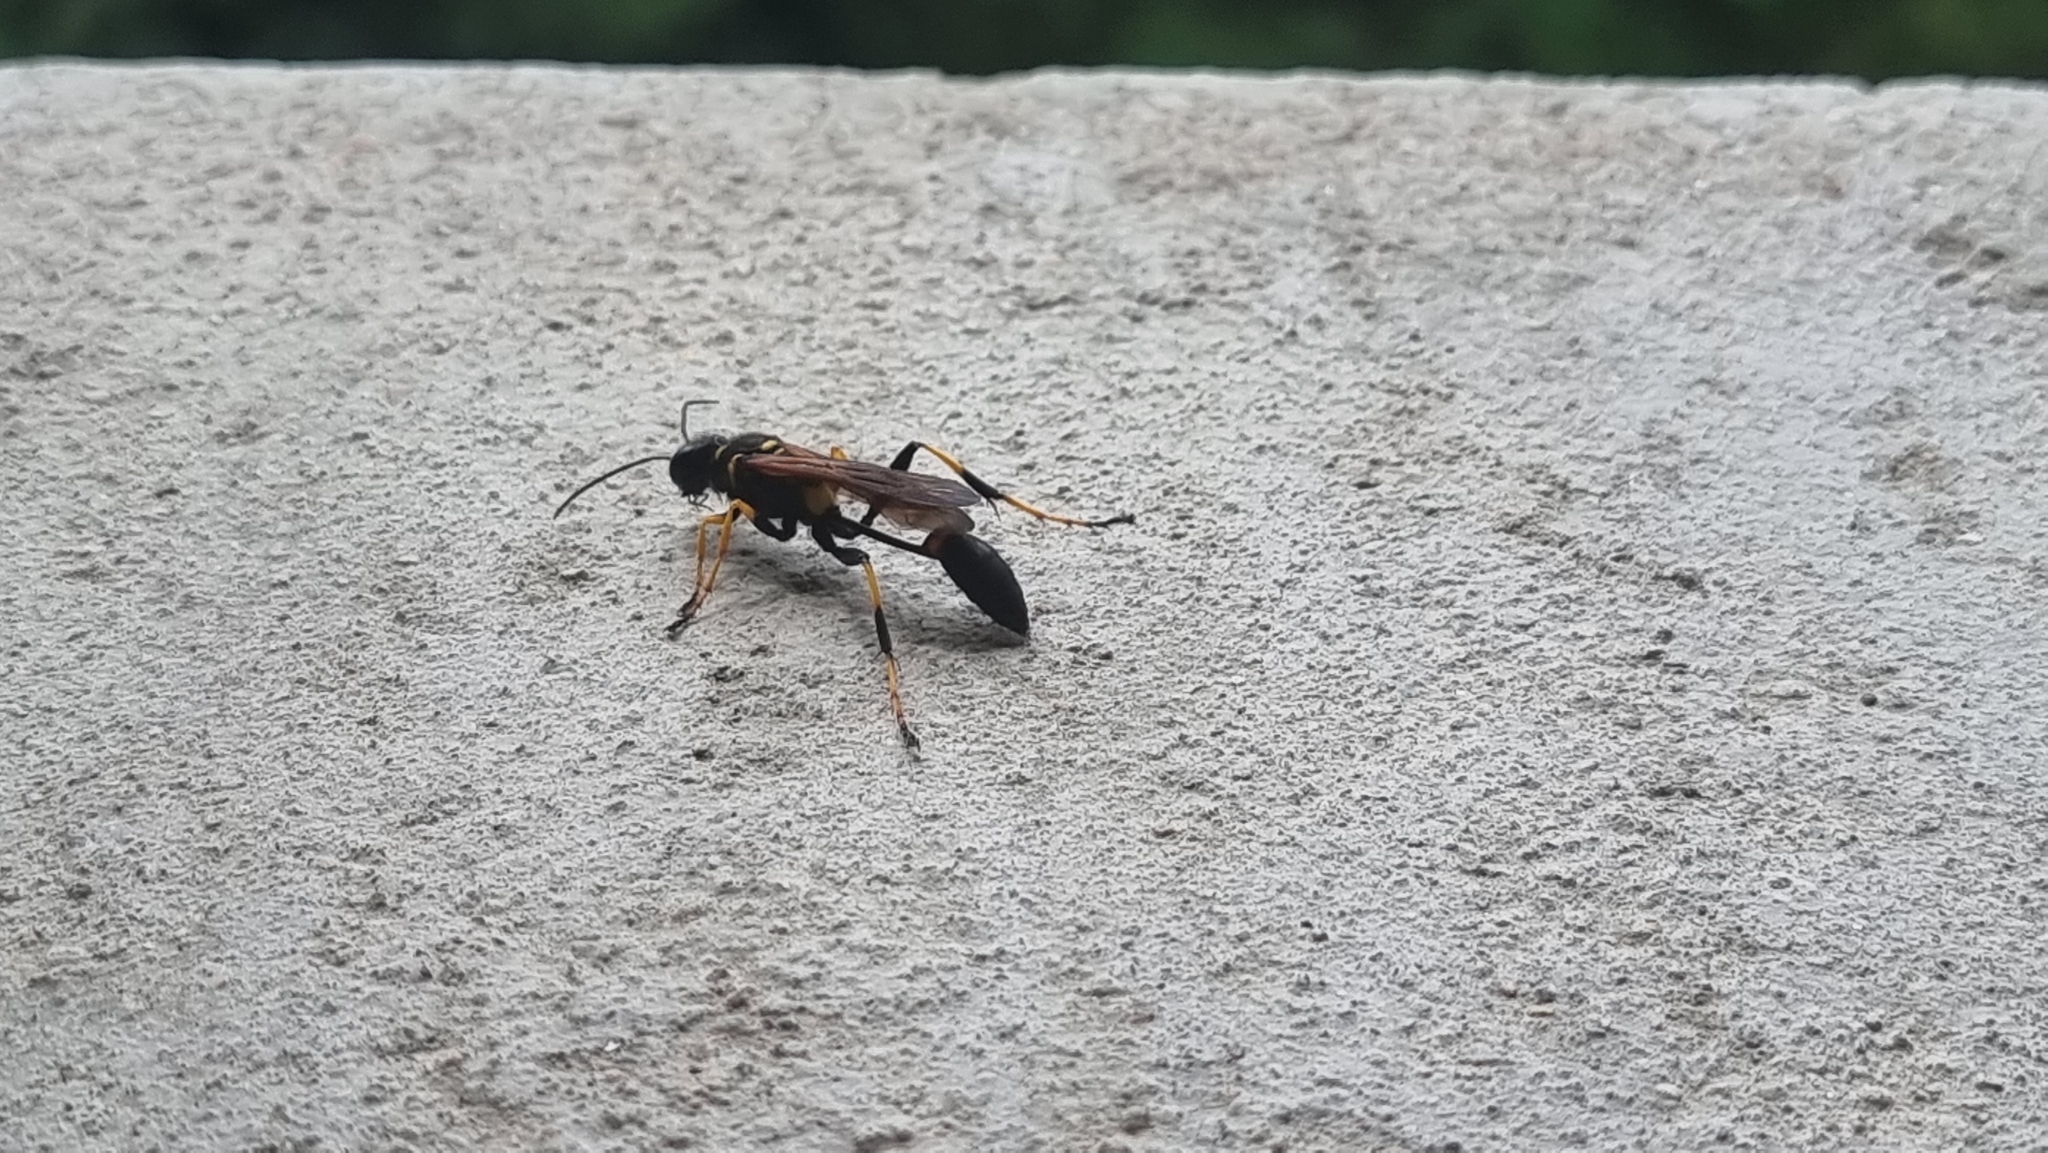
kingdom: Animalia
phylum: Arthropoda
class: Insecta
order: Hymenoptera
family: Sphecidae
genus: Sceliphron
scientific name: Sceliphron caementarium
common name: Mud dauber
